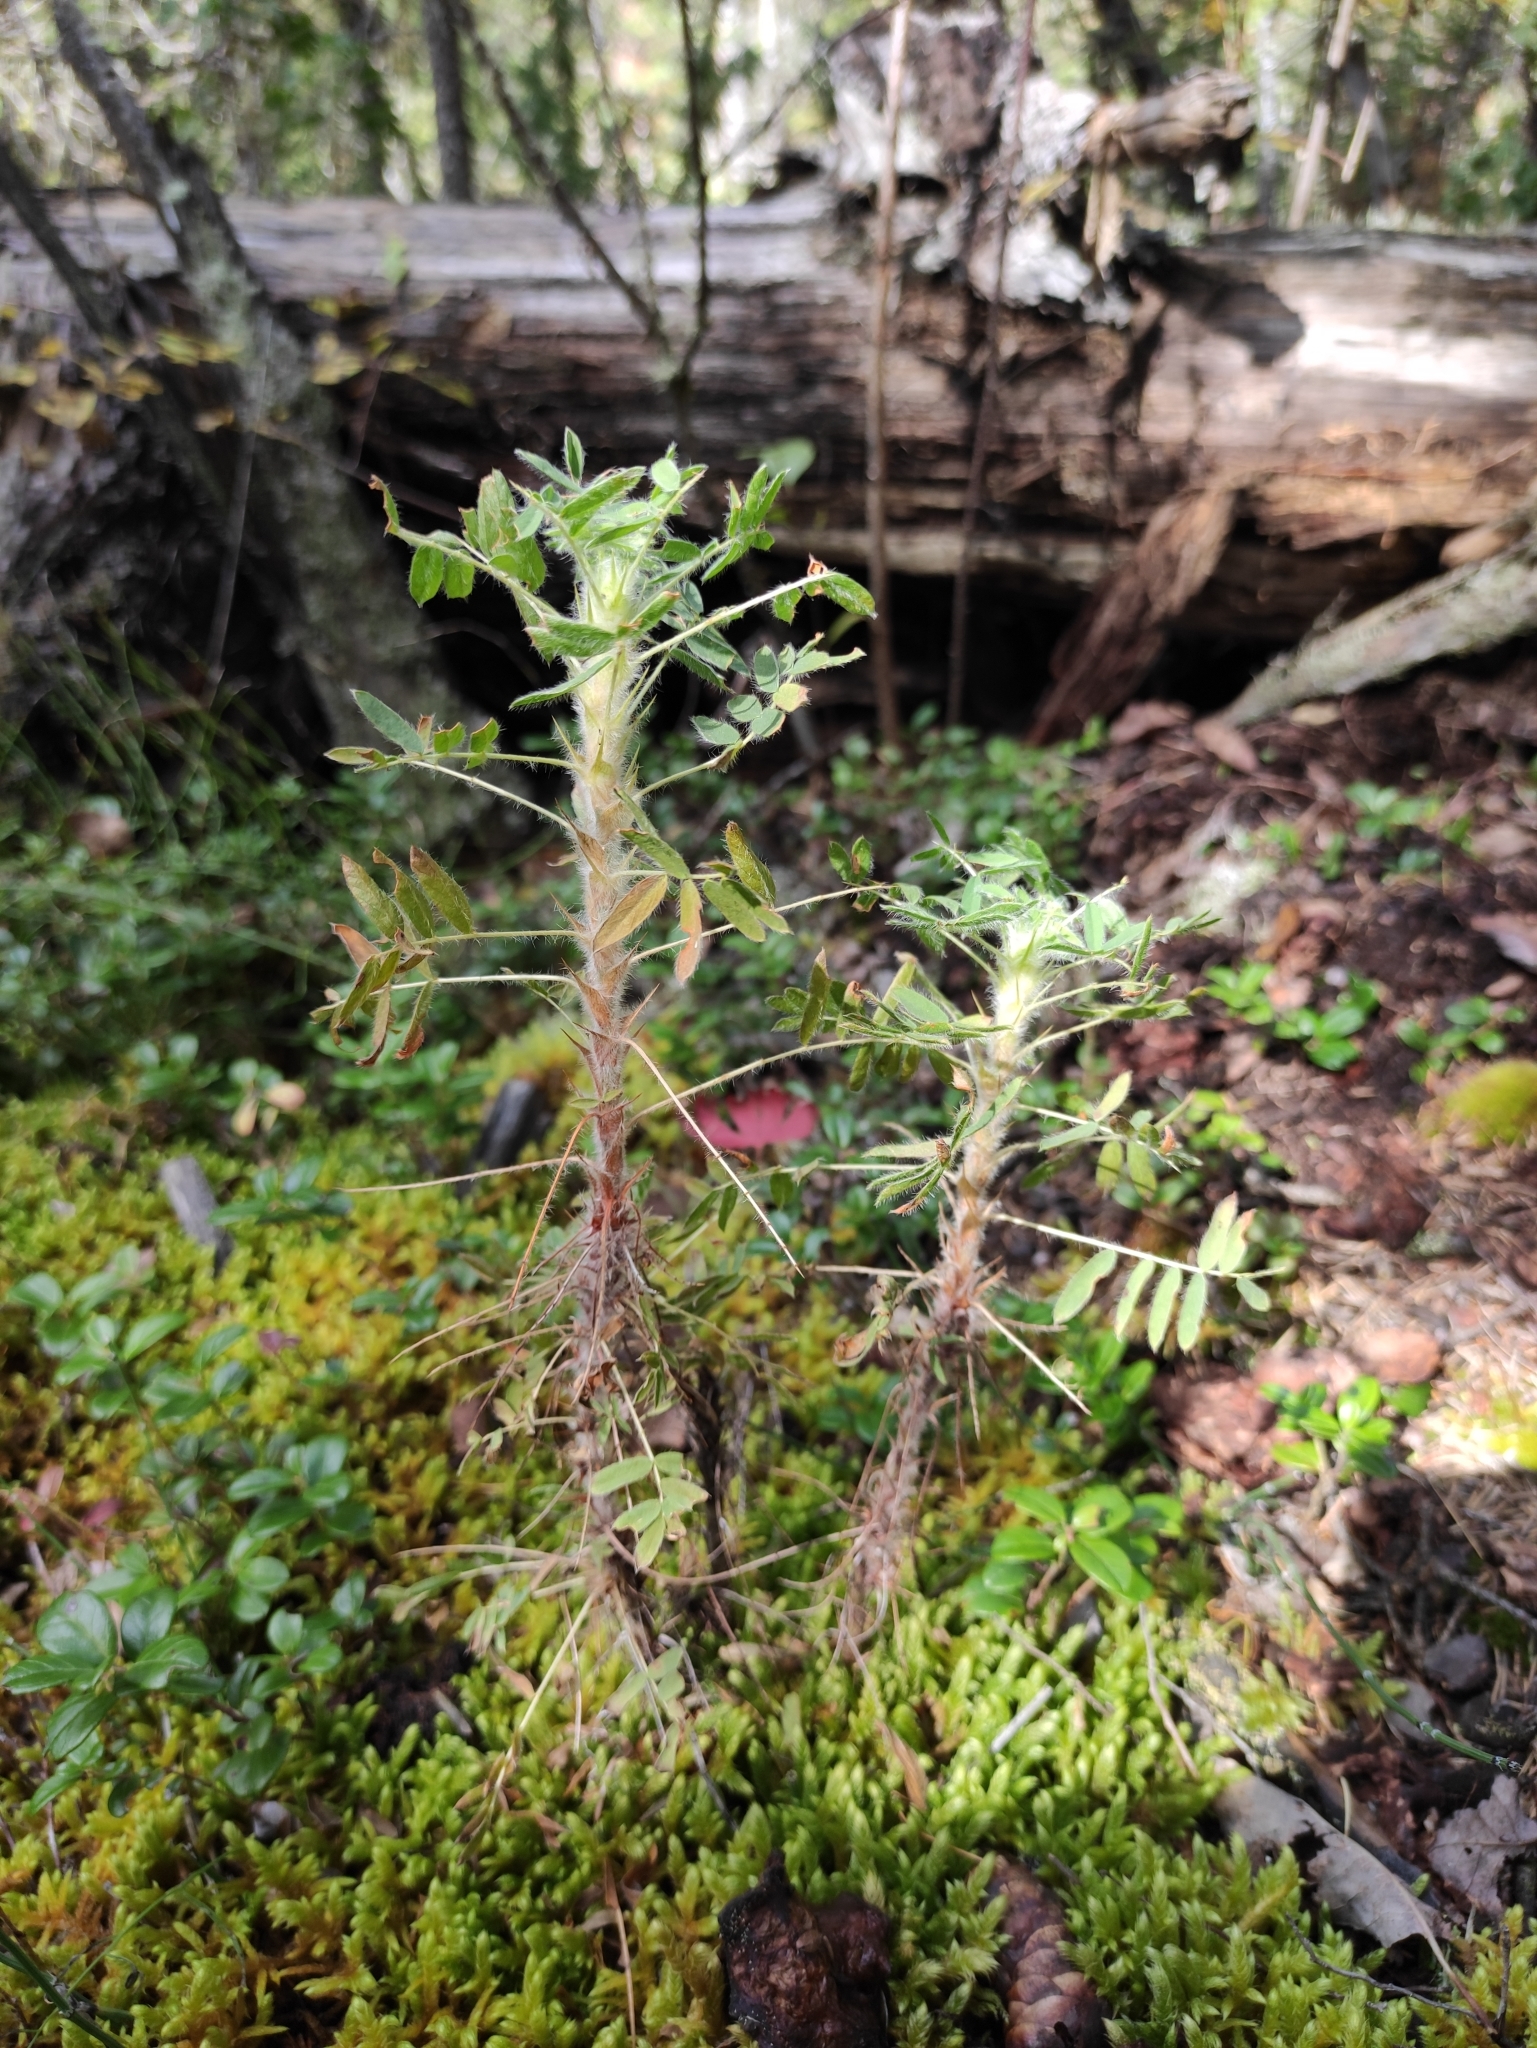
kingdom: Plantae
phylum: Tracheophyta
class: Magnoliopsida
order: Fabales
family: Fabaceae
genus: Caragana
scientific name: Caragana jubata
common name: Shag-spine peashrub
